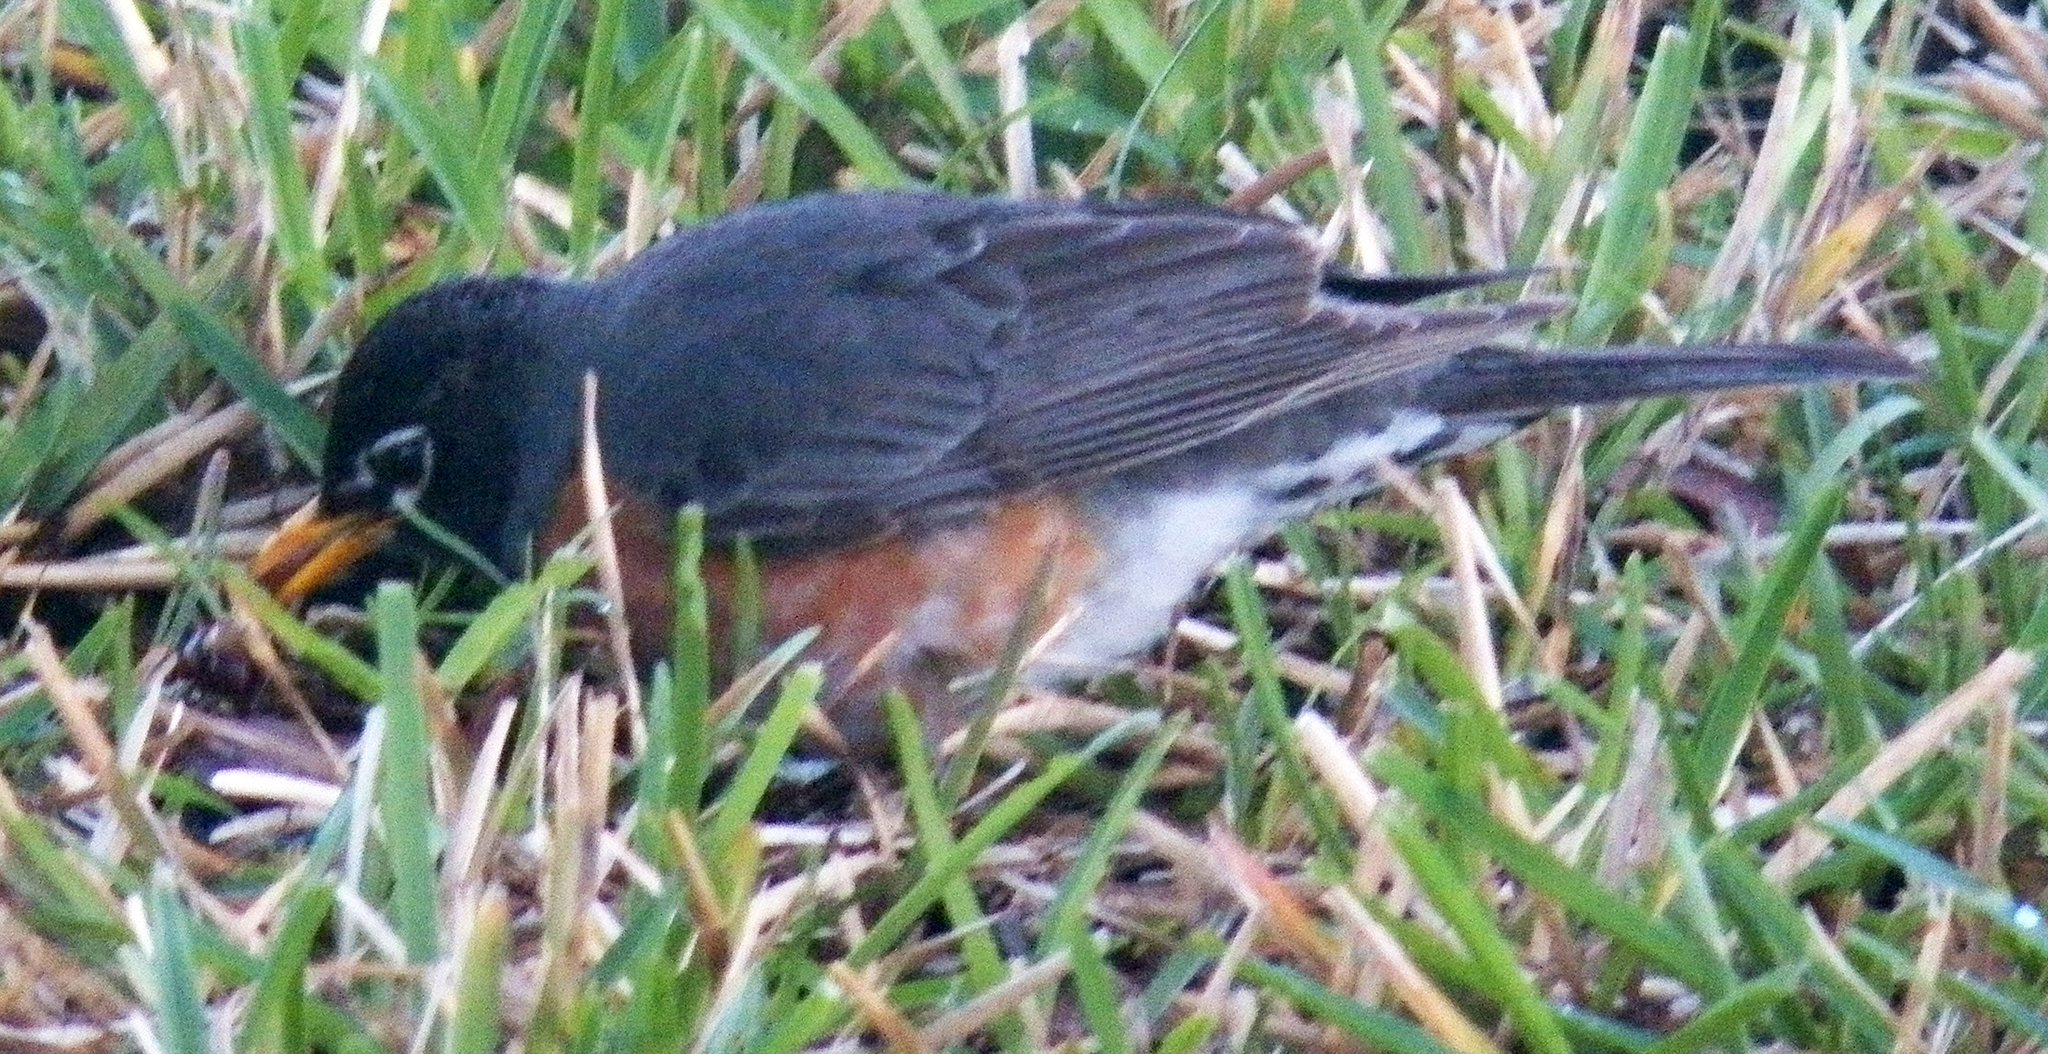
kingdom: Animalia
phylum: Chordata
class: Aves
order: Passeriformes
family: Turdidae
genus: Turdus
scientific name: Turdus migratorius
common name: American robin
